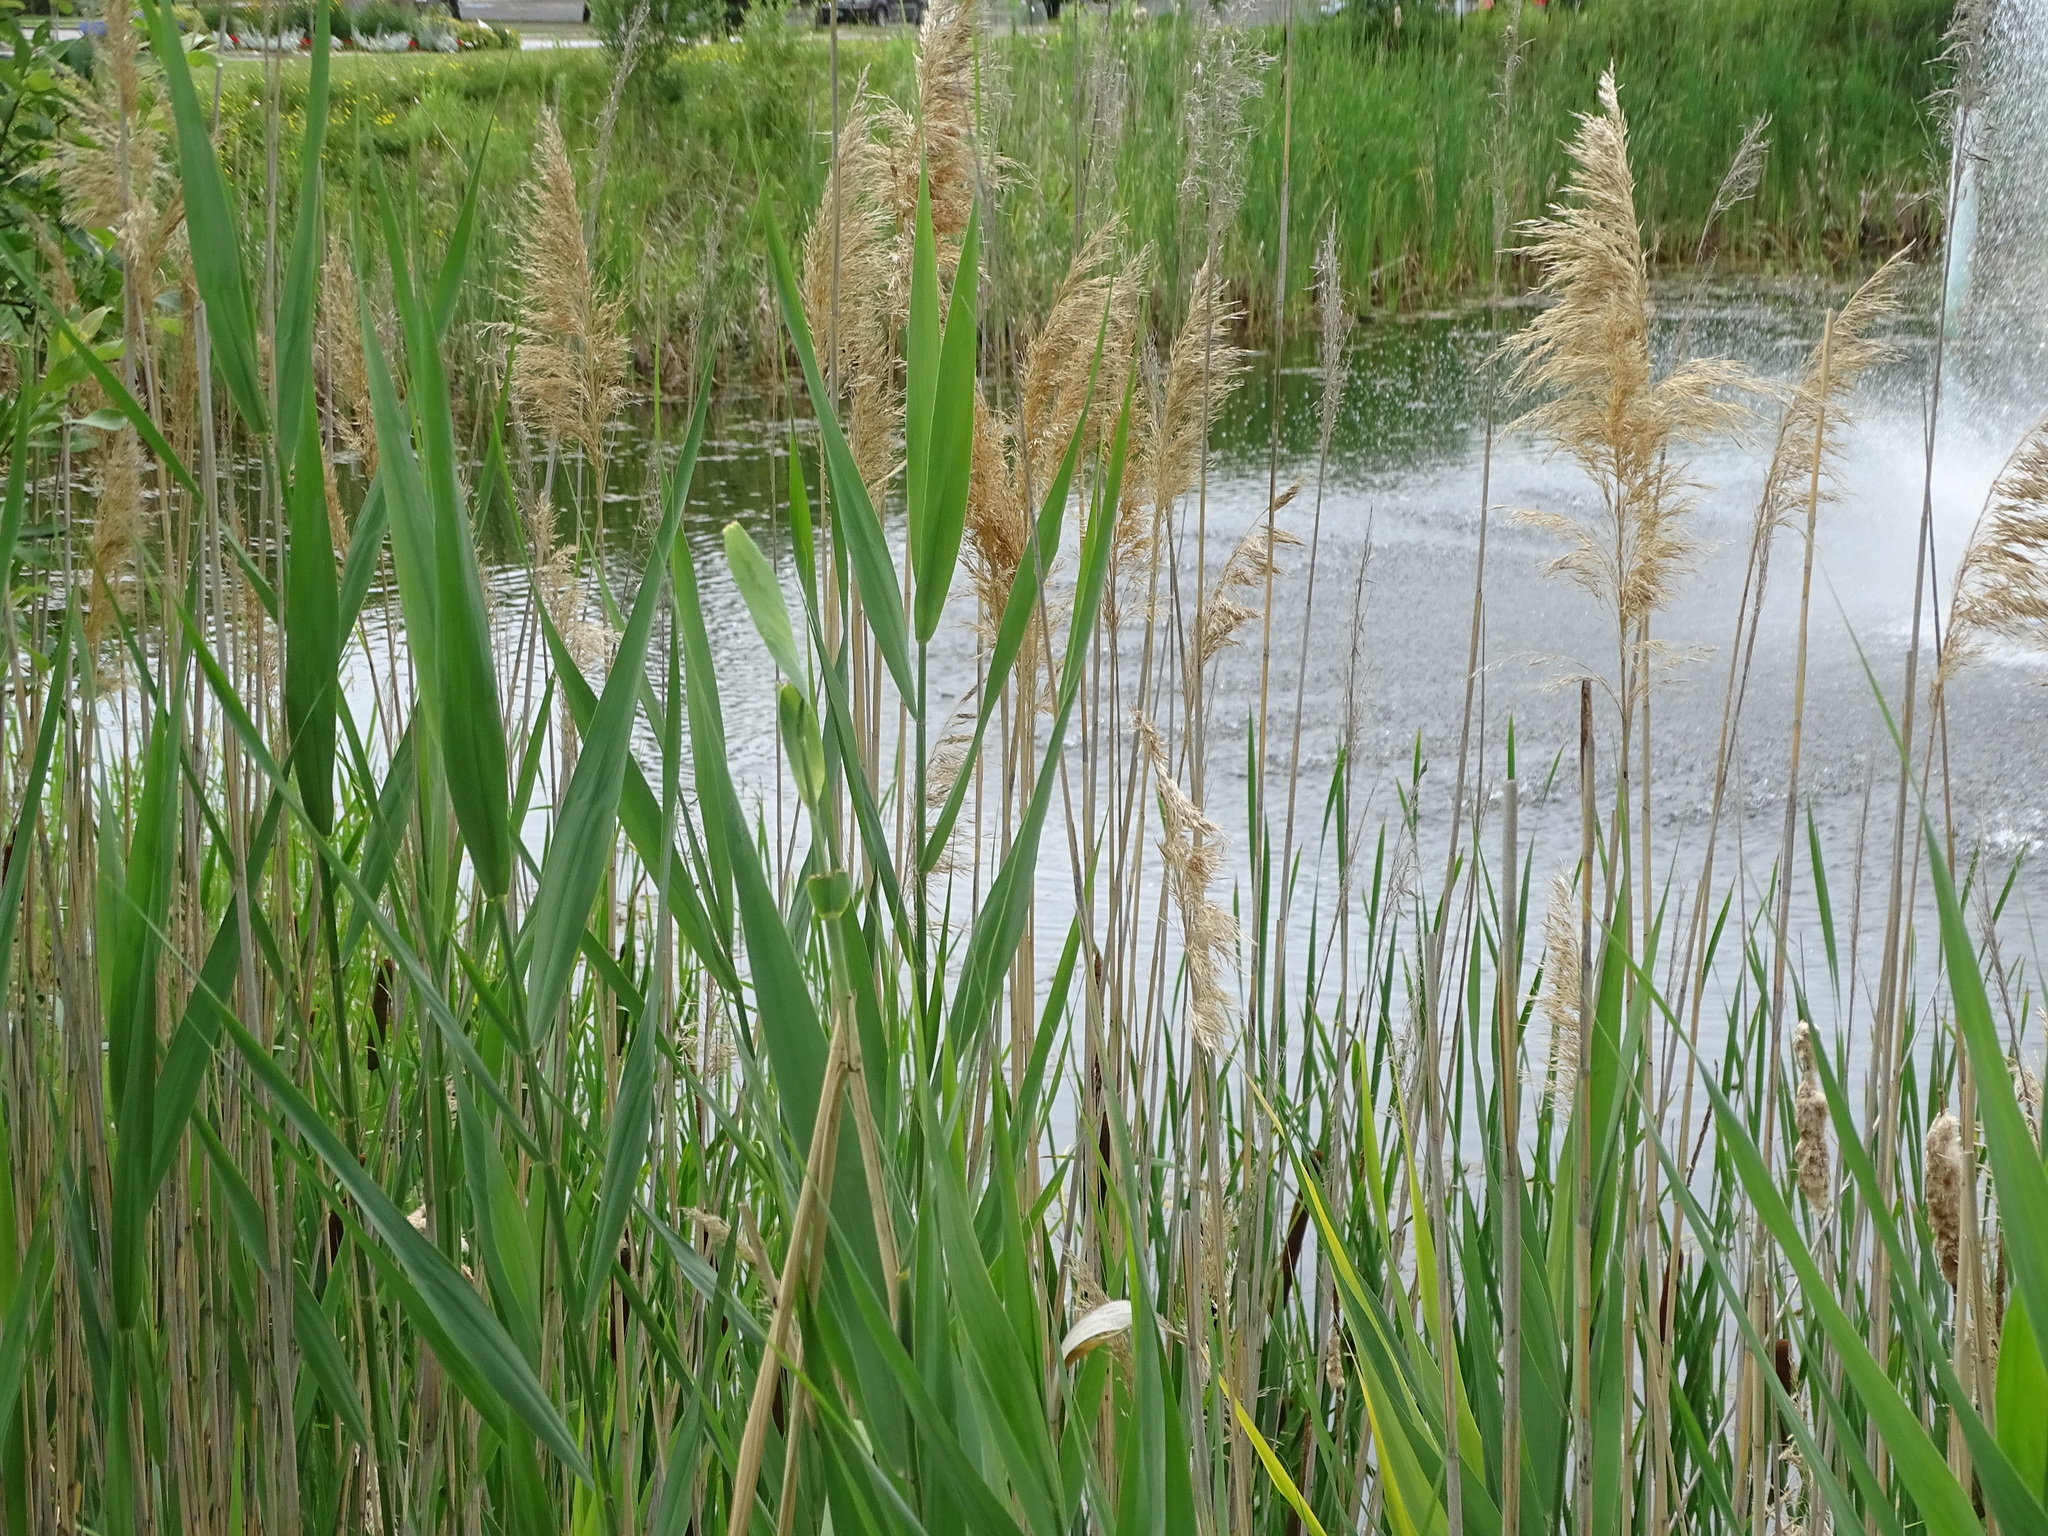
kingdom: Plantae
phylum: Tracheophyta
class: Liliopsida
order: Poales
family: Poaceae
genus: Phragmites
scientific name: Phragmites australis
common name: Common reed
